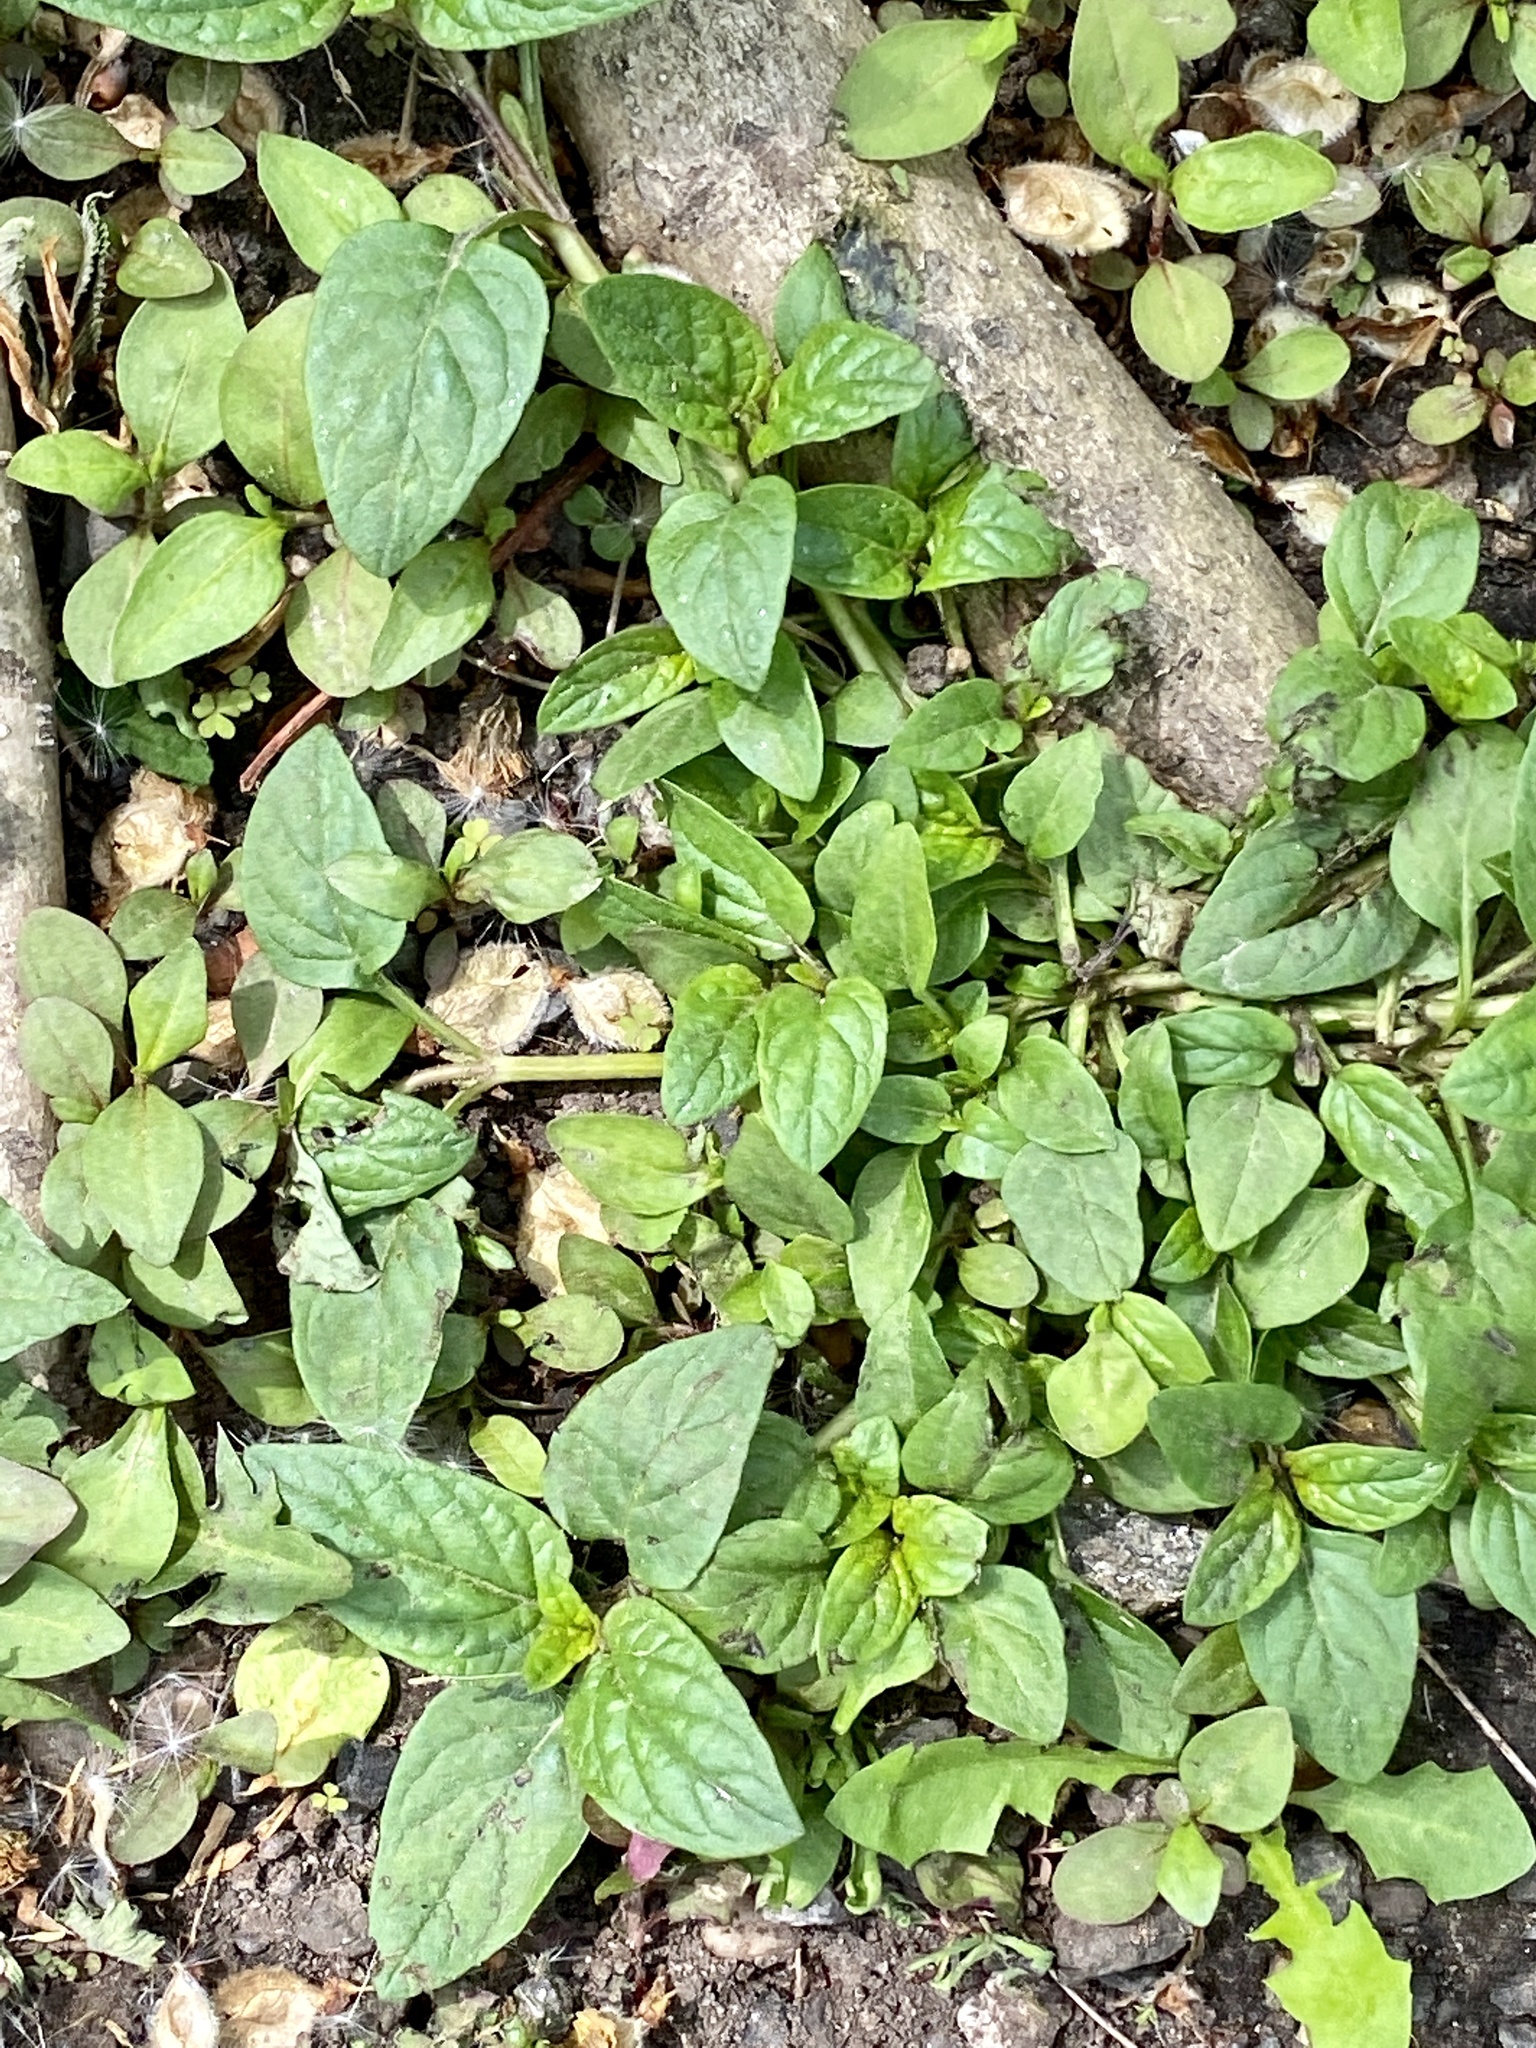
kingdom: Plantae
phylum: Tracheophyta
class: Magnoliopsida
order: Lamiales
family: Lamiaceae
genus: Prunella
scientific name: Prunella vulgaris
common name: Heal-all
